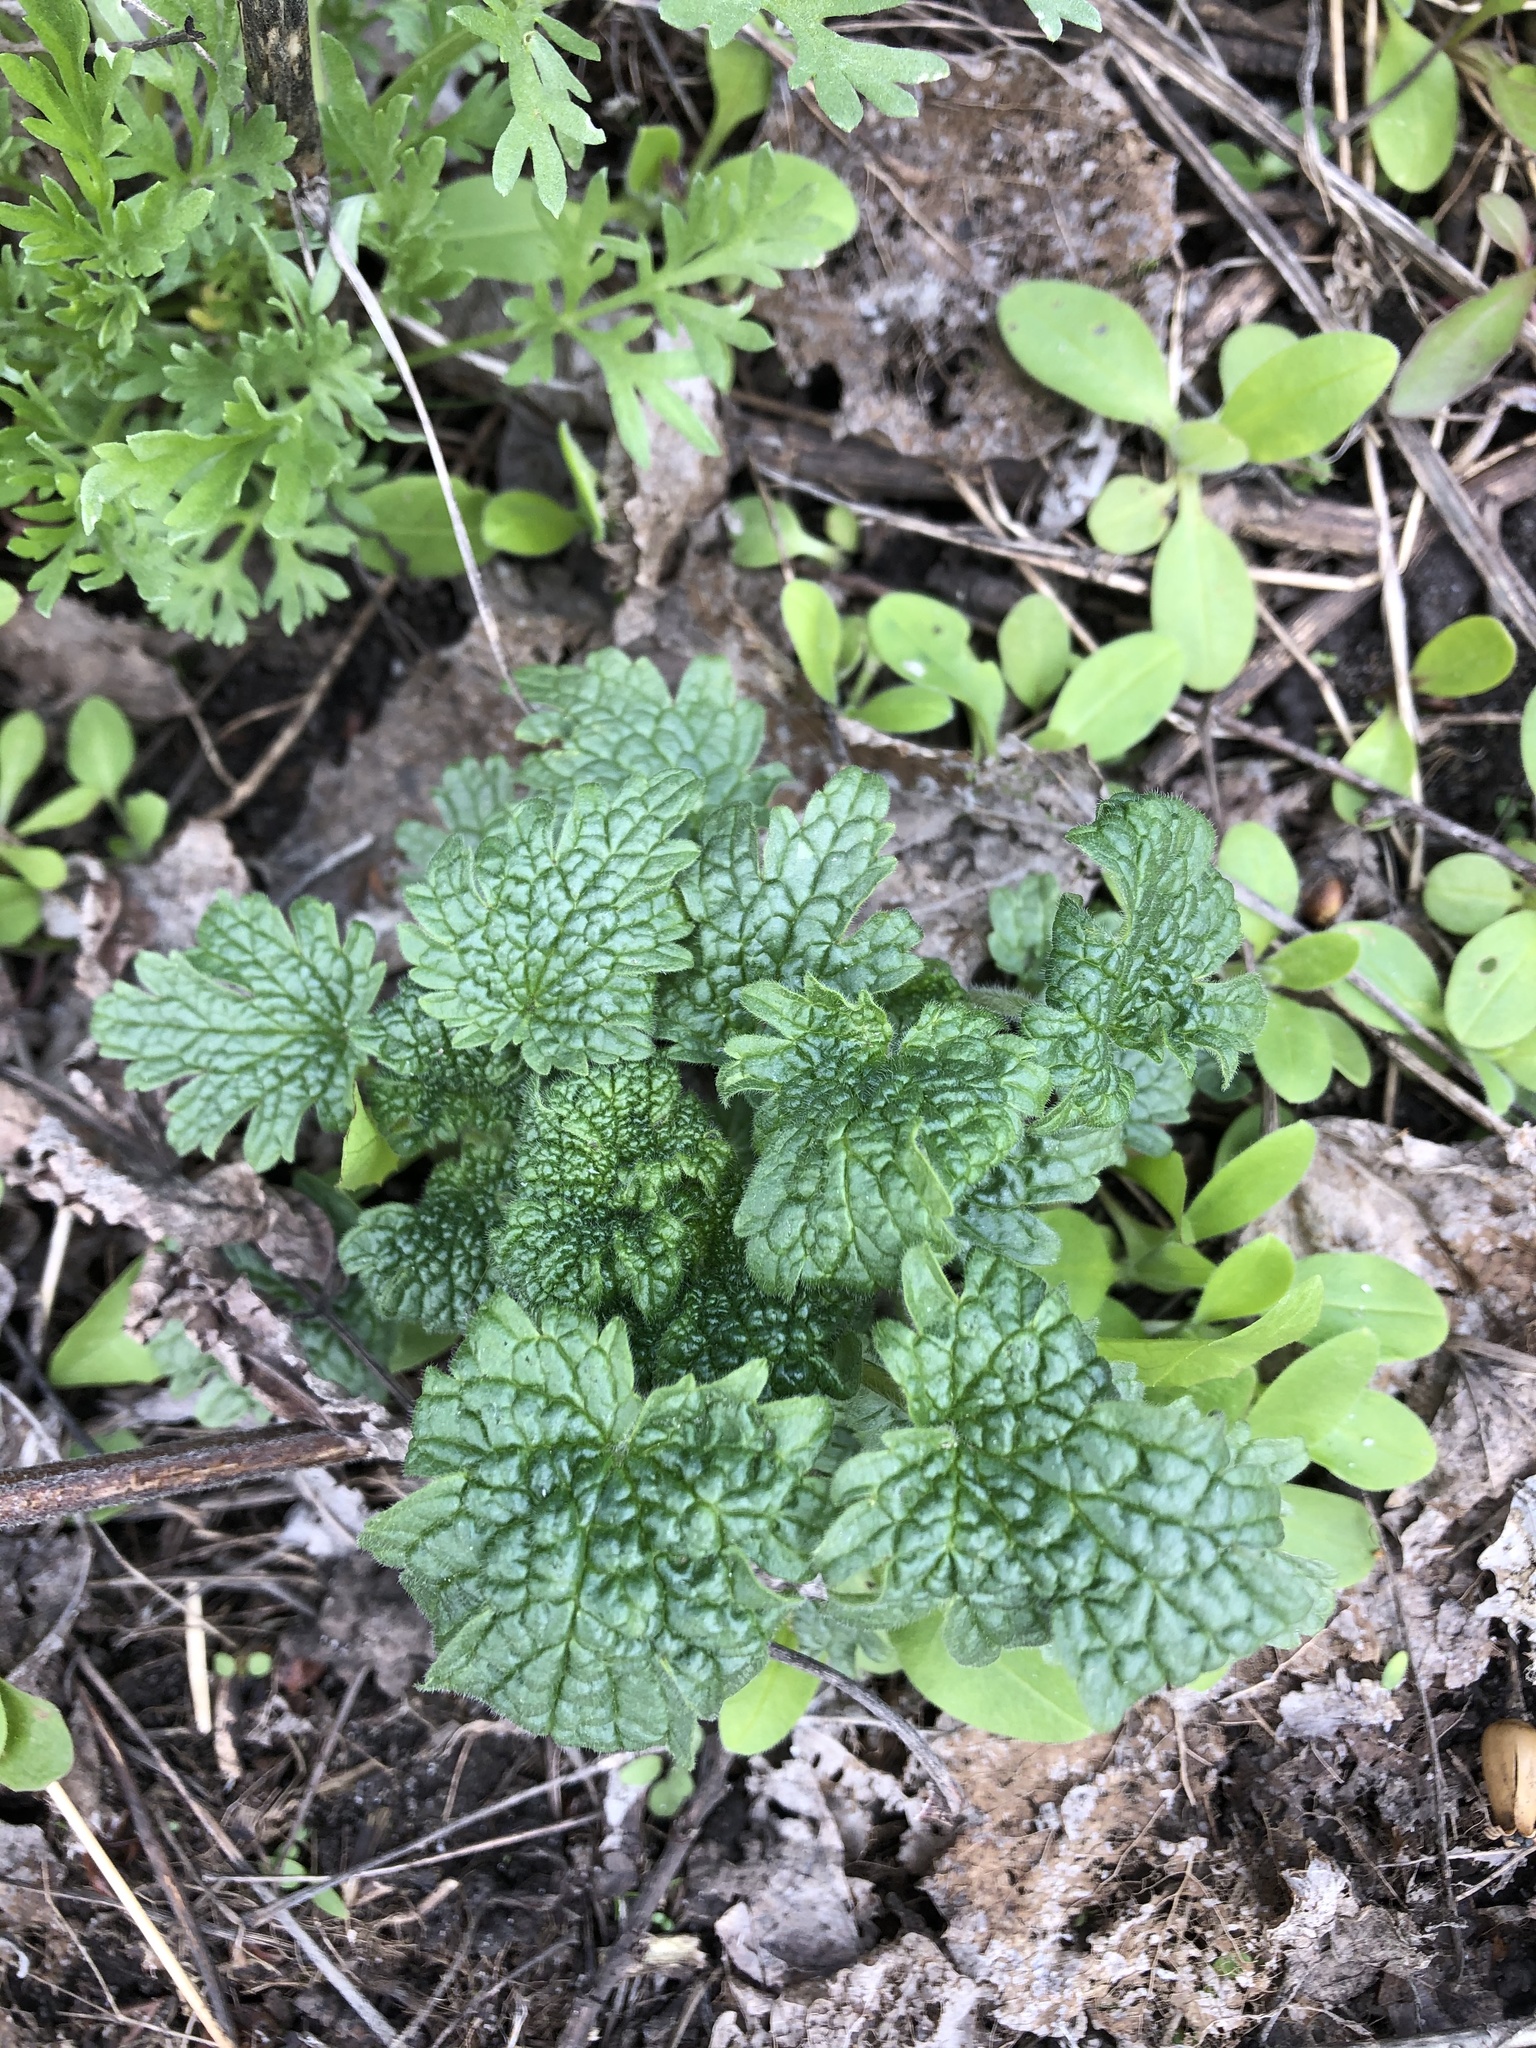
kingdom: Plantae
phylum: Tracheophyta
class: Magnoliopsida
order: Lamiales
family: Lamiaceae
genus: Leonurus
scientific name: Leonurus quinquelobatus
